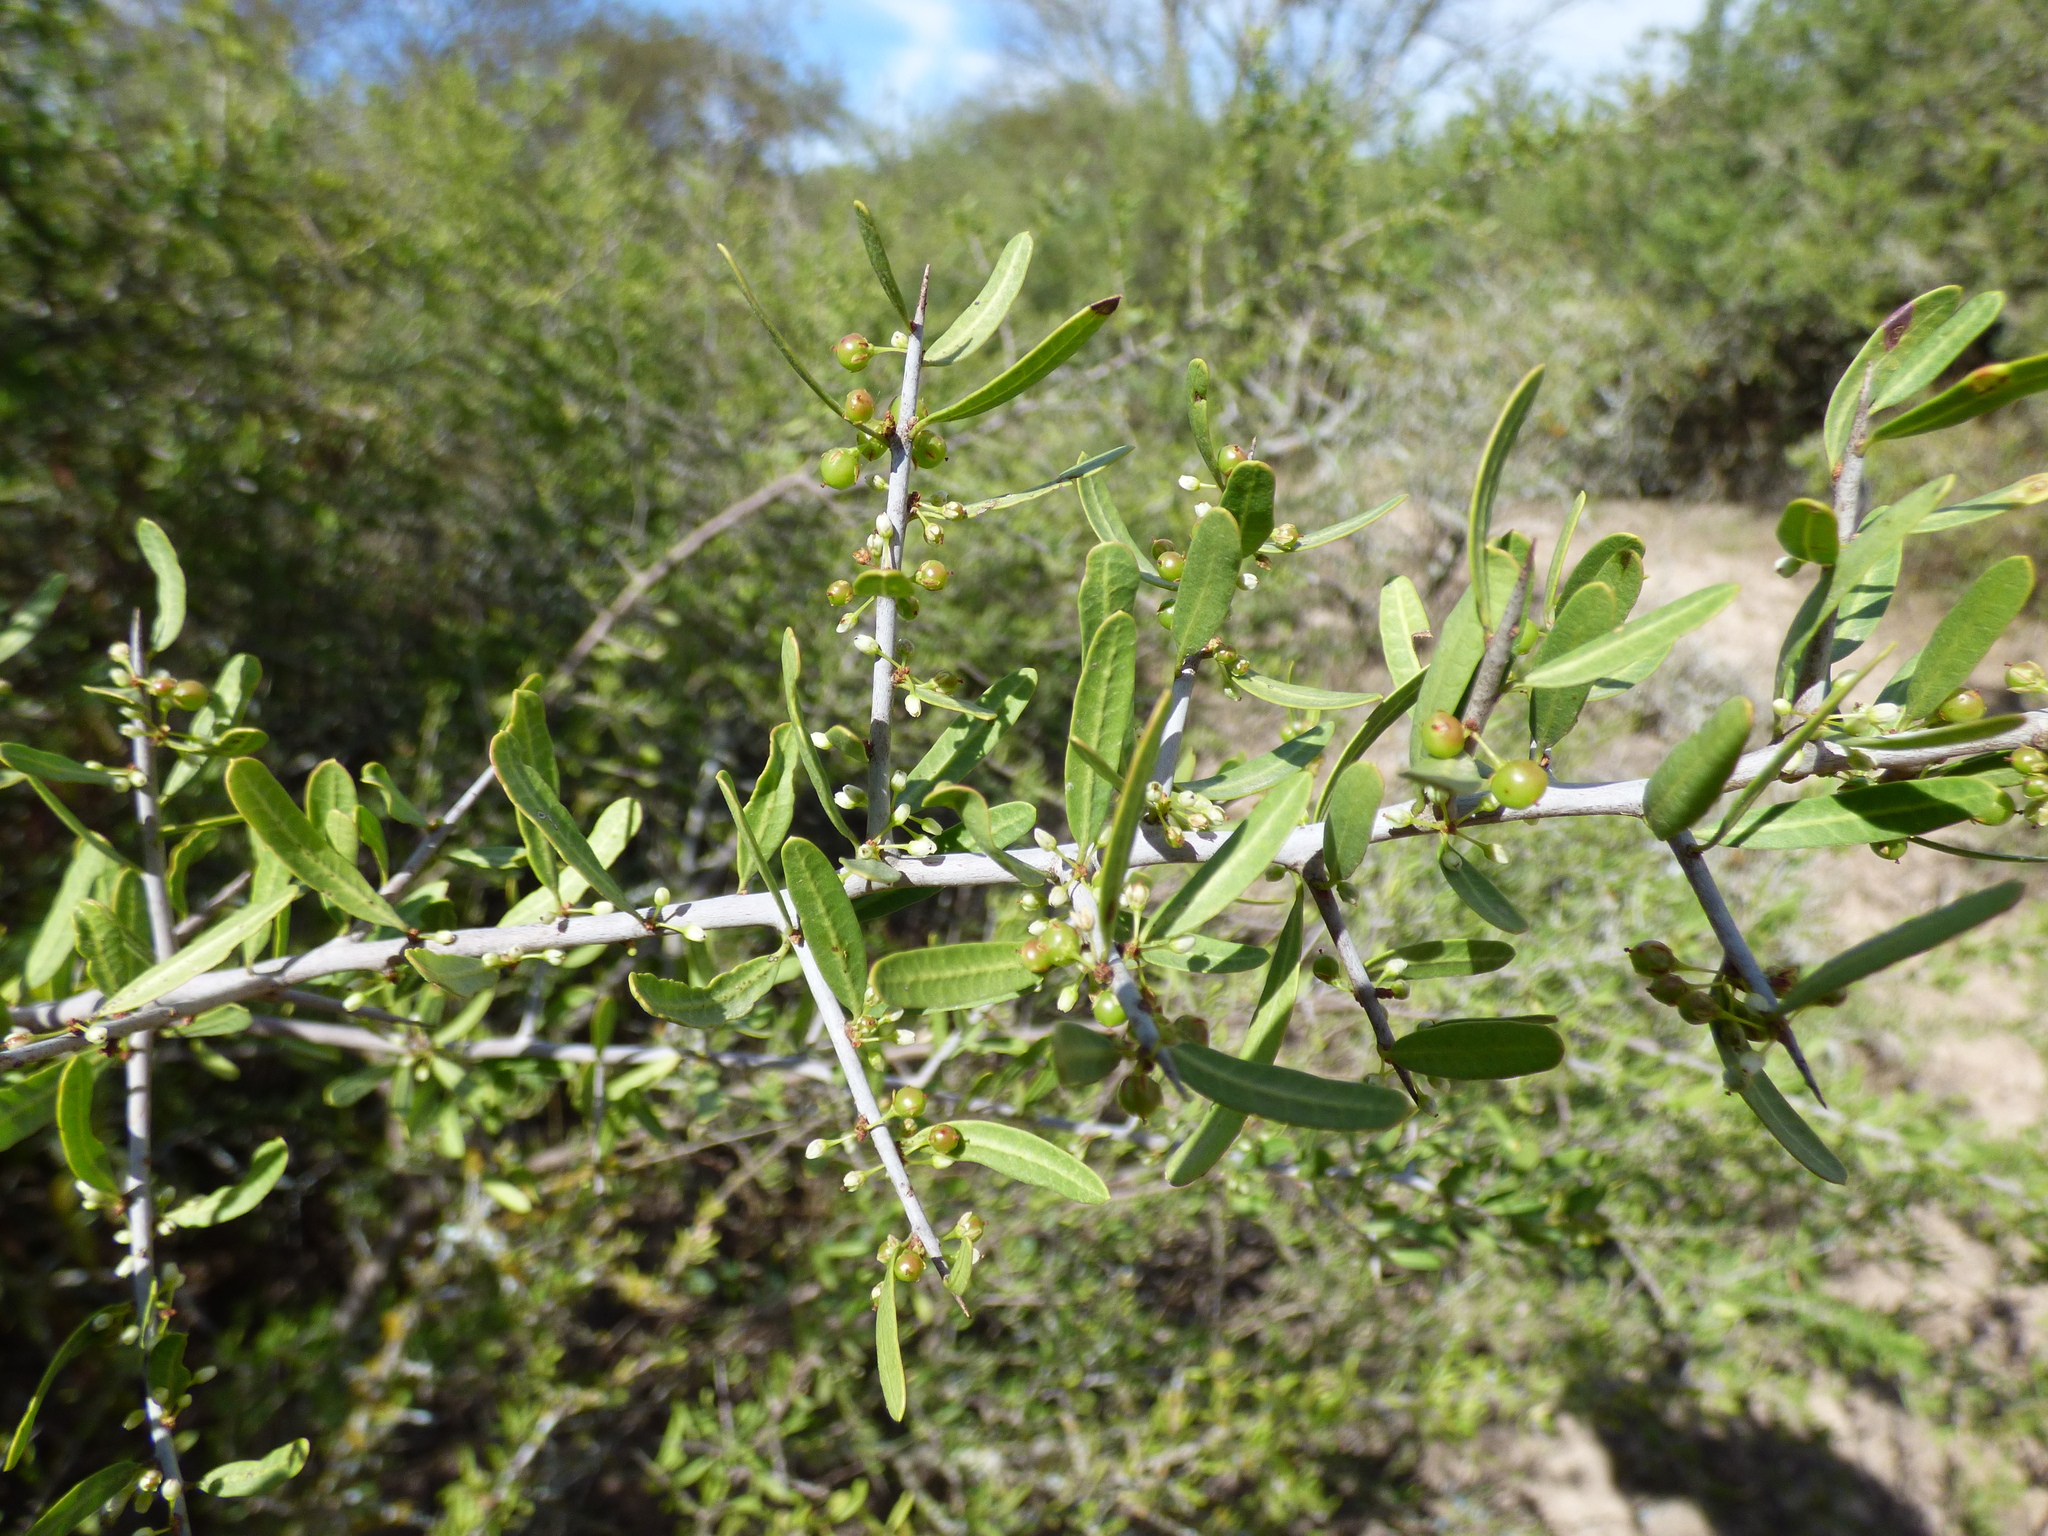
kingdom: Plantae
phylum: Tracheophyta
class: Magnoliopsida
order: Sapindales
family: Anacardiaceae
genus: Schinus
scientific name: Schinus longifolia
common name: Longleaf peppertree
